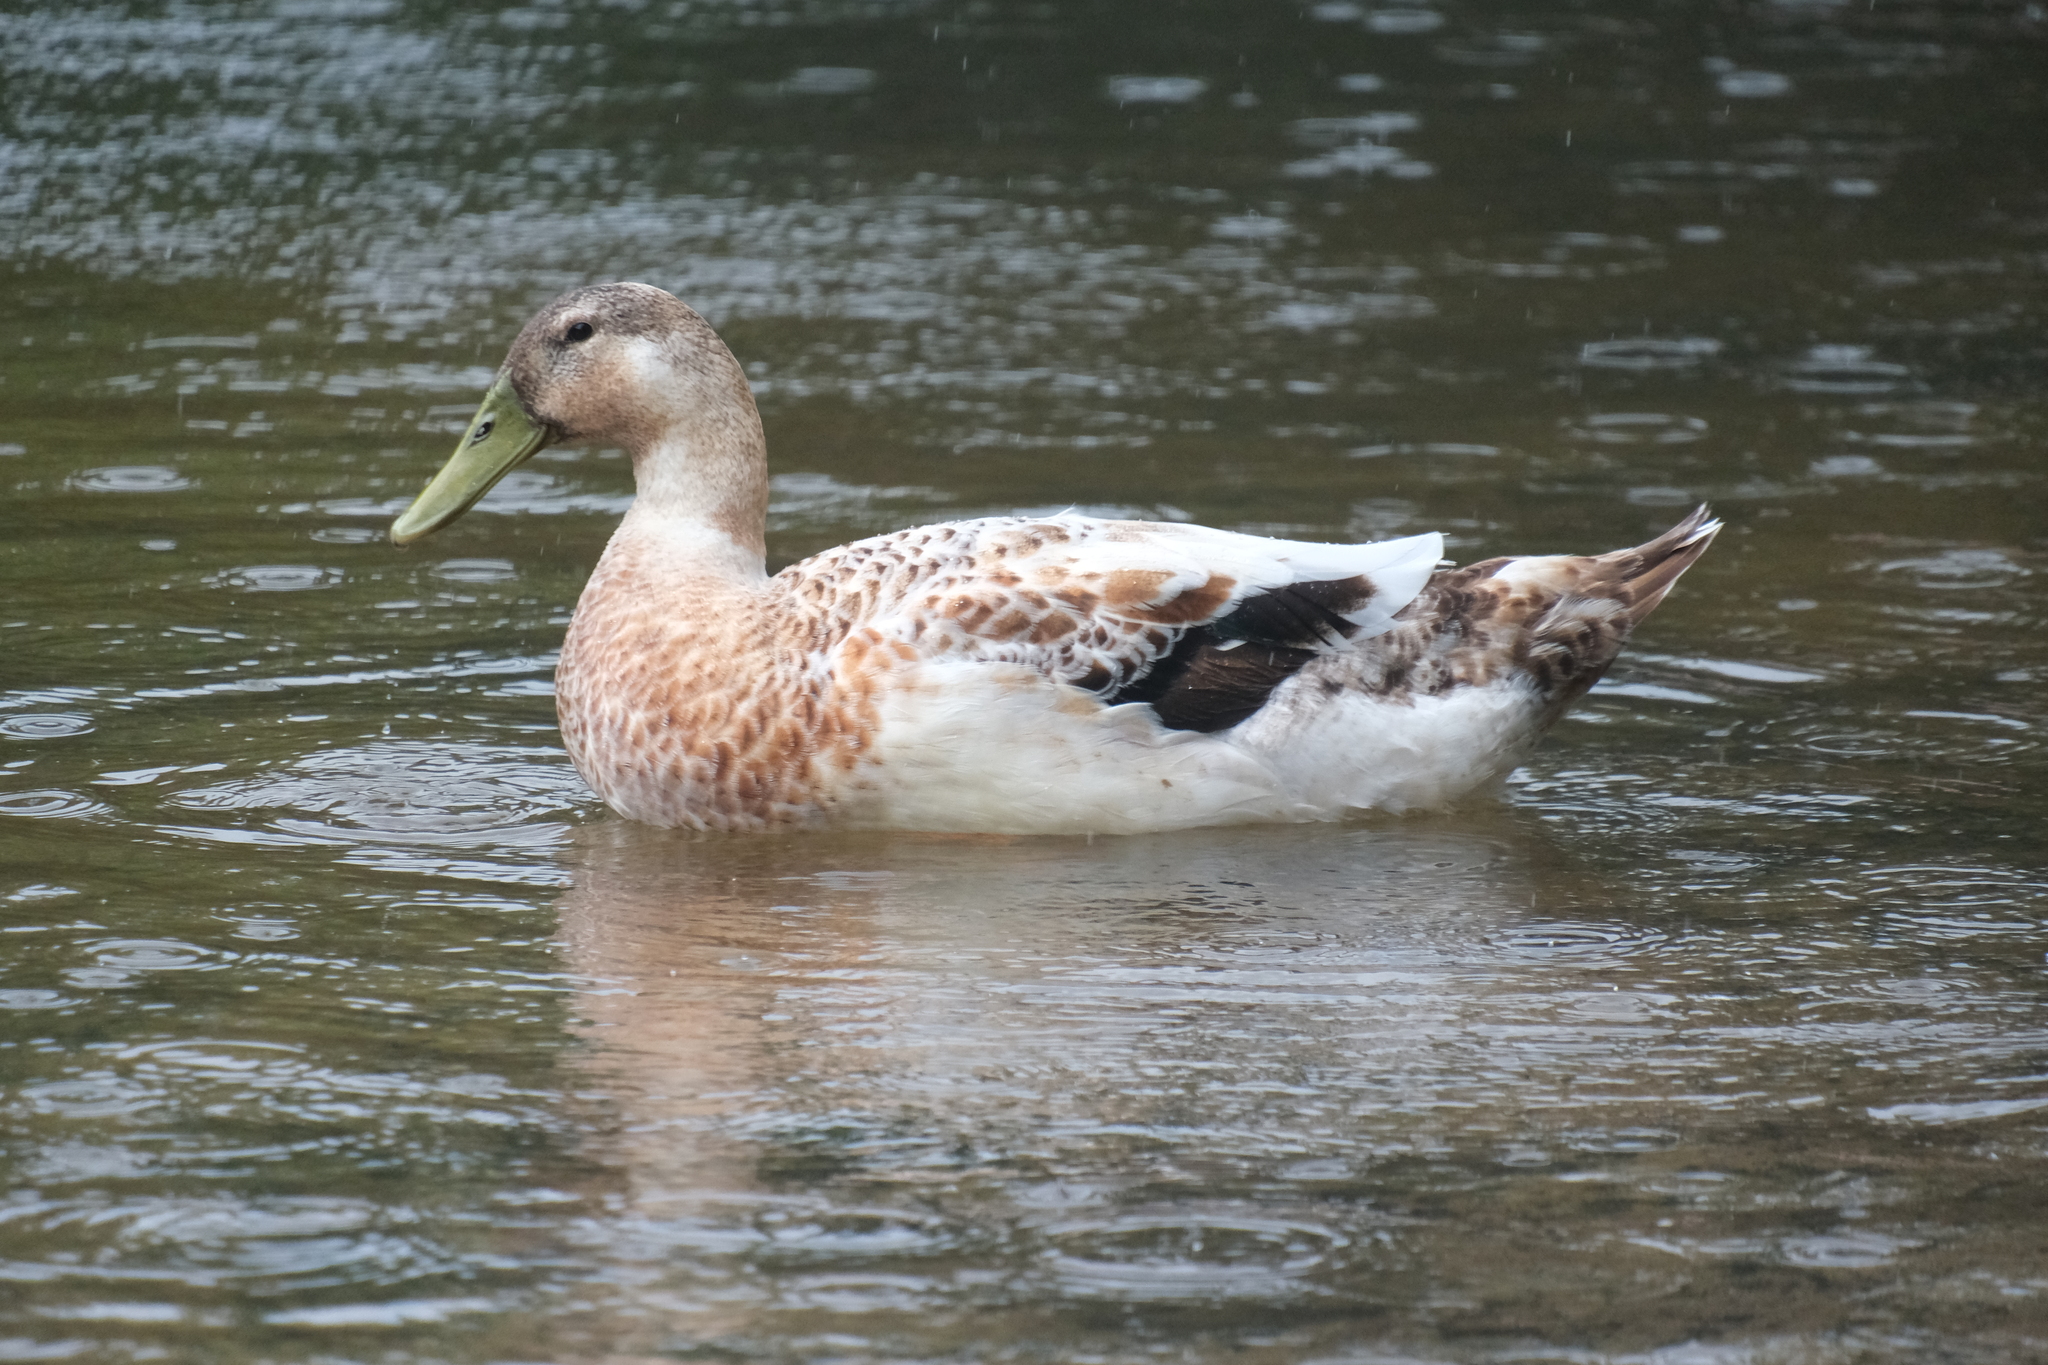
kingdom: Animalia
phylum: Chordata
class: Aves
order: Anseriformes
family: Anatidae
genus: Anas
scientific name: Anas platyrhynchos
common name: Mallard
